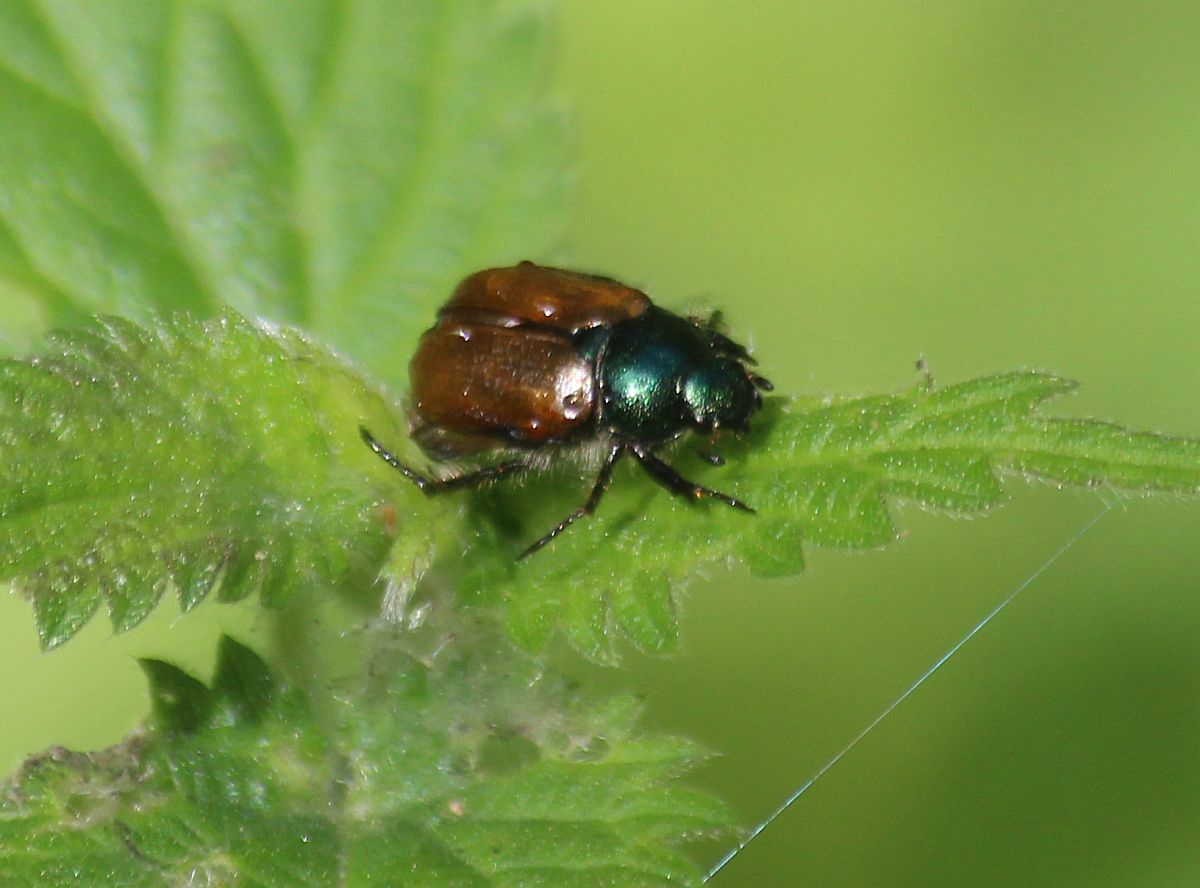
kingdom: Animalia
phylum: Arthropoda
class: Insecta
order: Coleoptera
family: Scarabaeidae
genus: Phyllopertha
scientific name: Phyllopertha horticola
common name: Garden chafer
